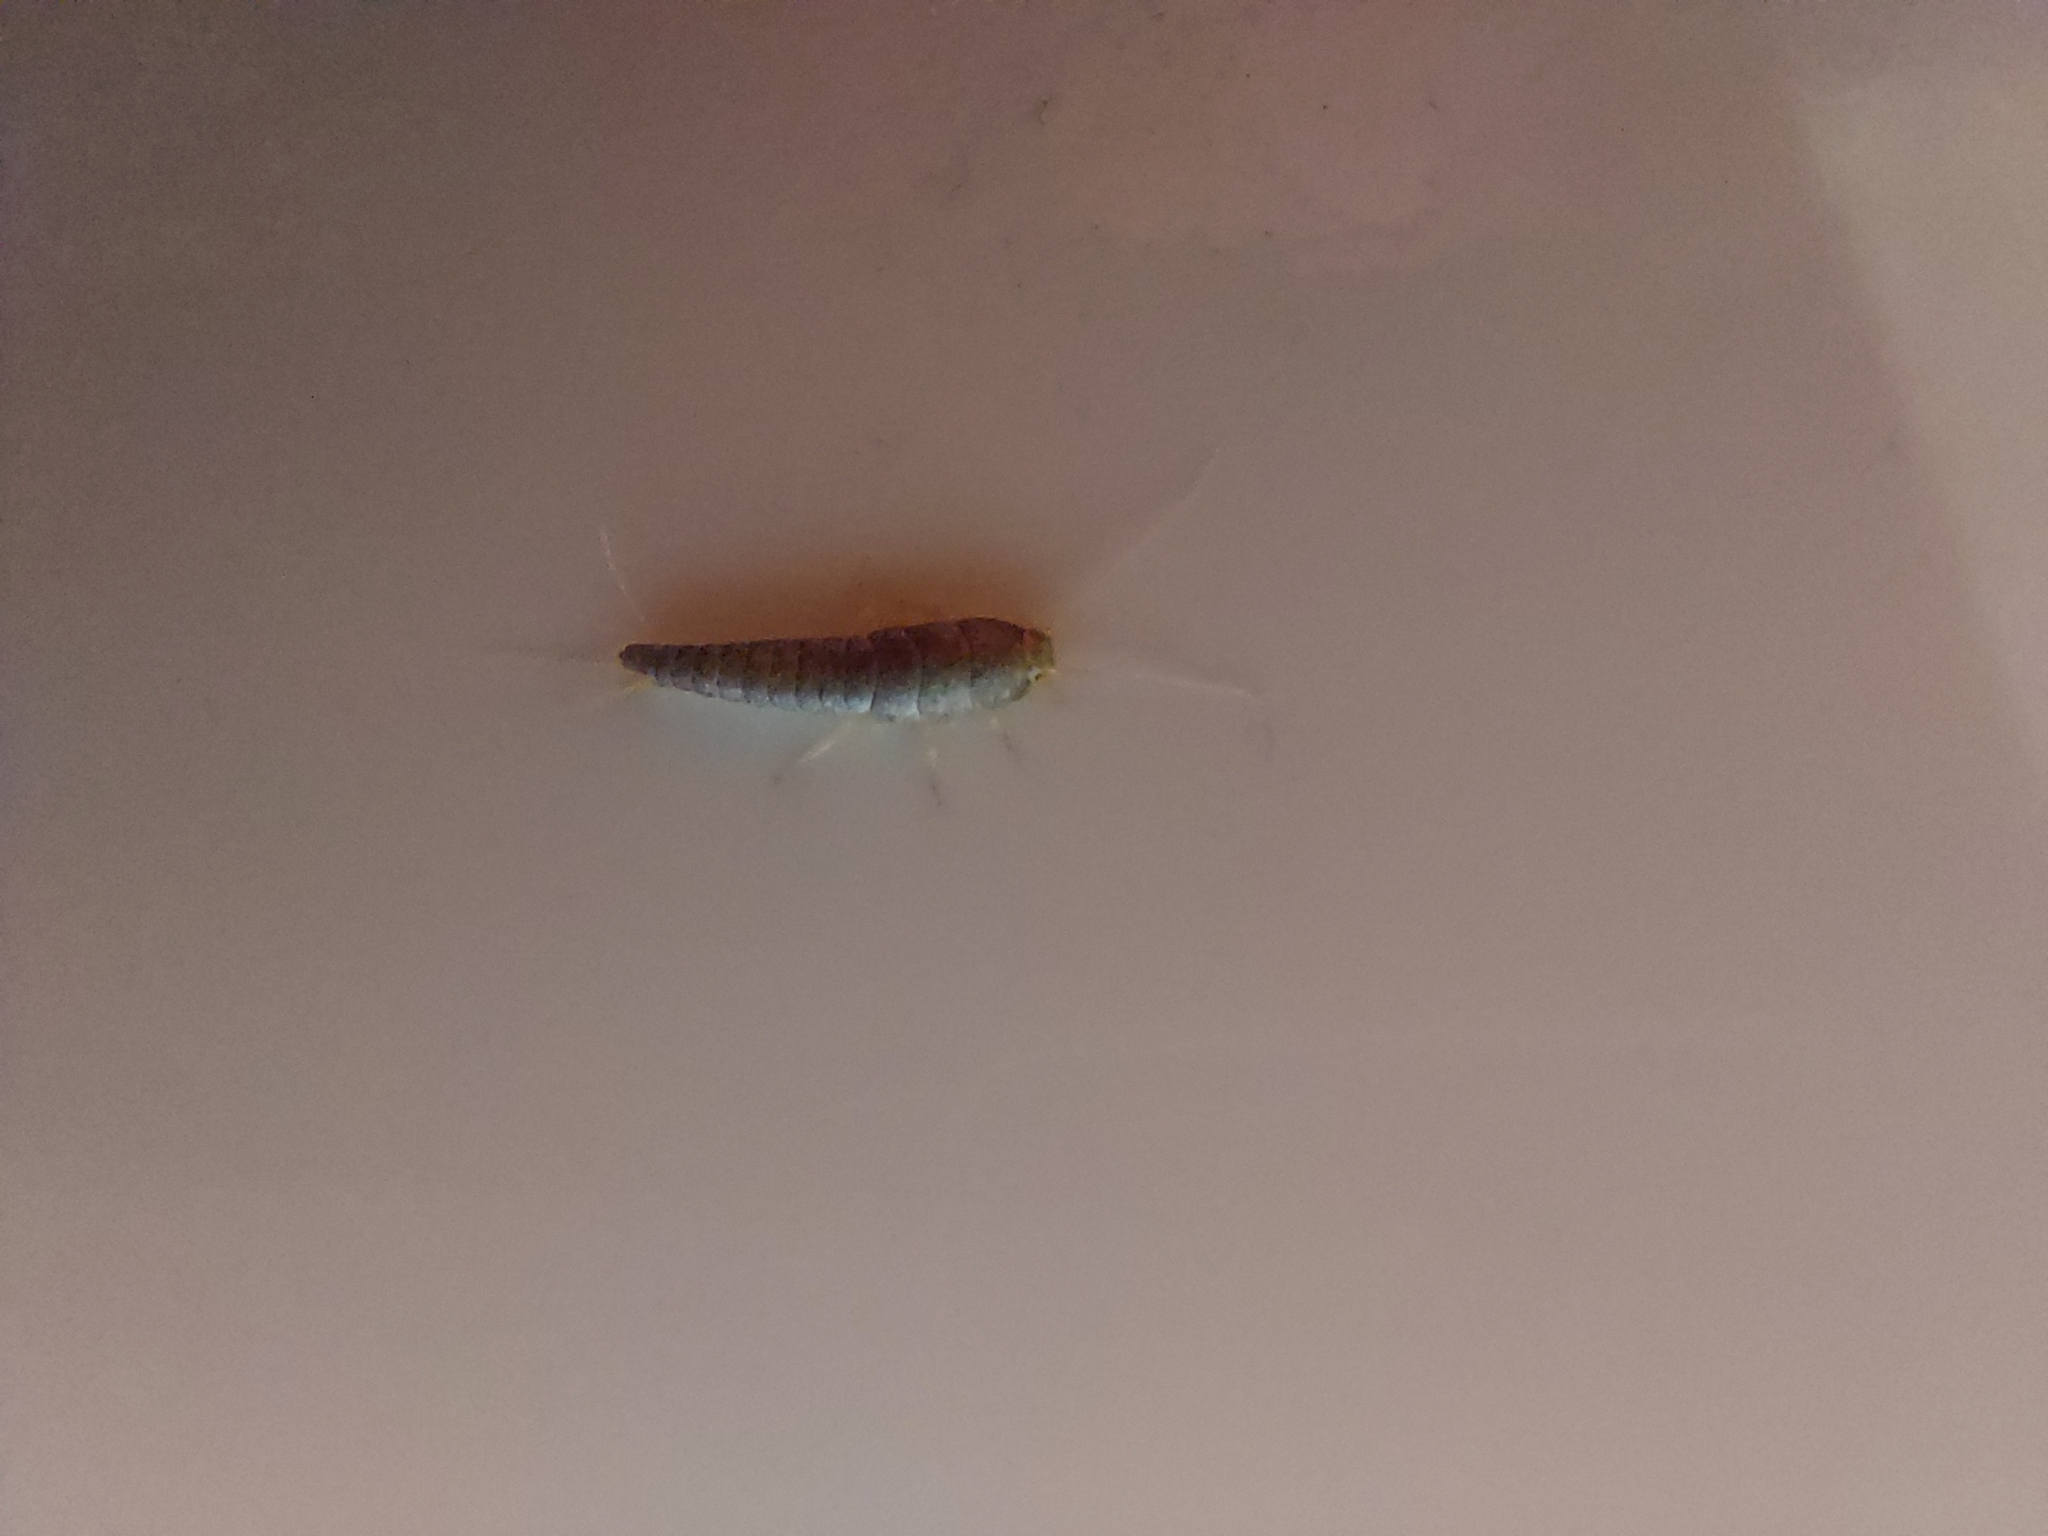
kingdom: Animalia
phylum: Arthropoda
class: Insecta
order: Zygentoma
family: Lepismatidae
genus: Lepisma
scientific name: Lepisma saccharinum
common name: Silverfish
